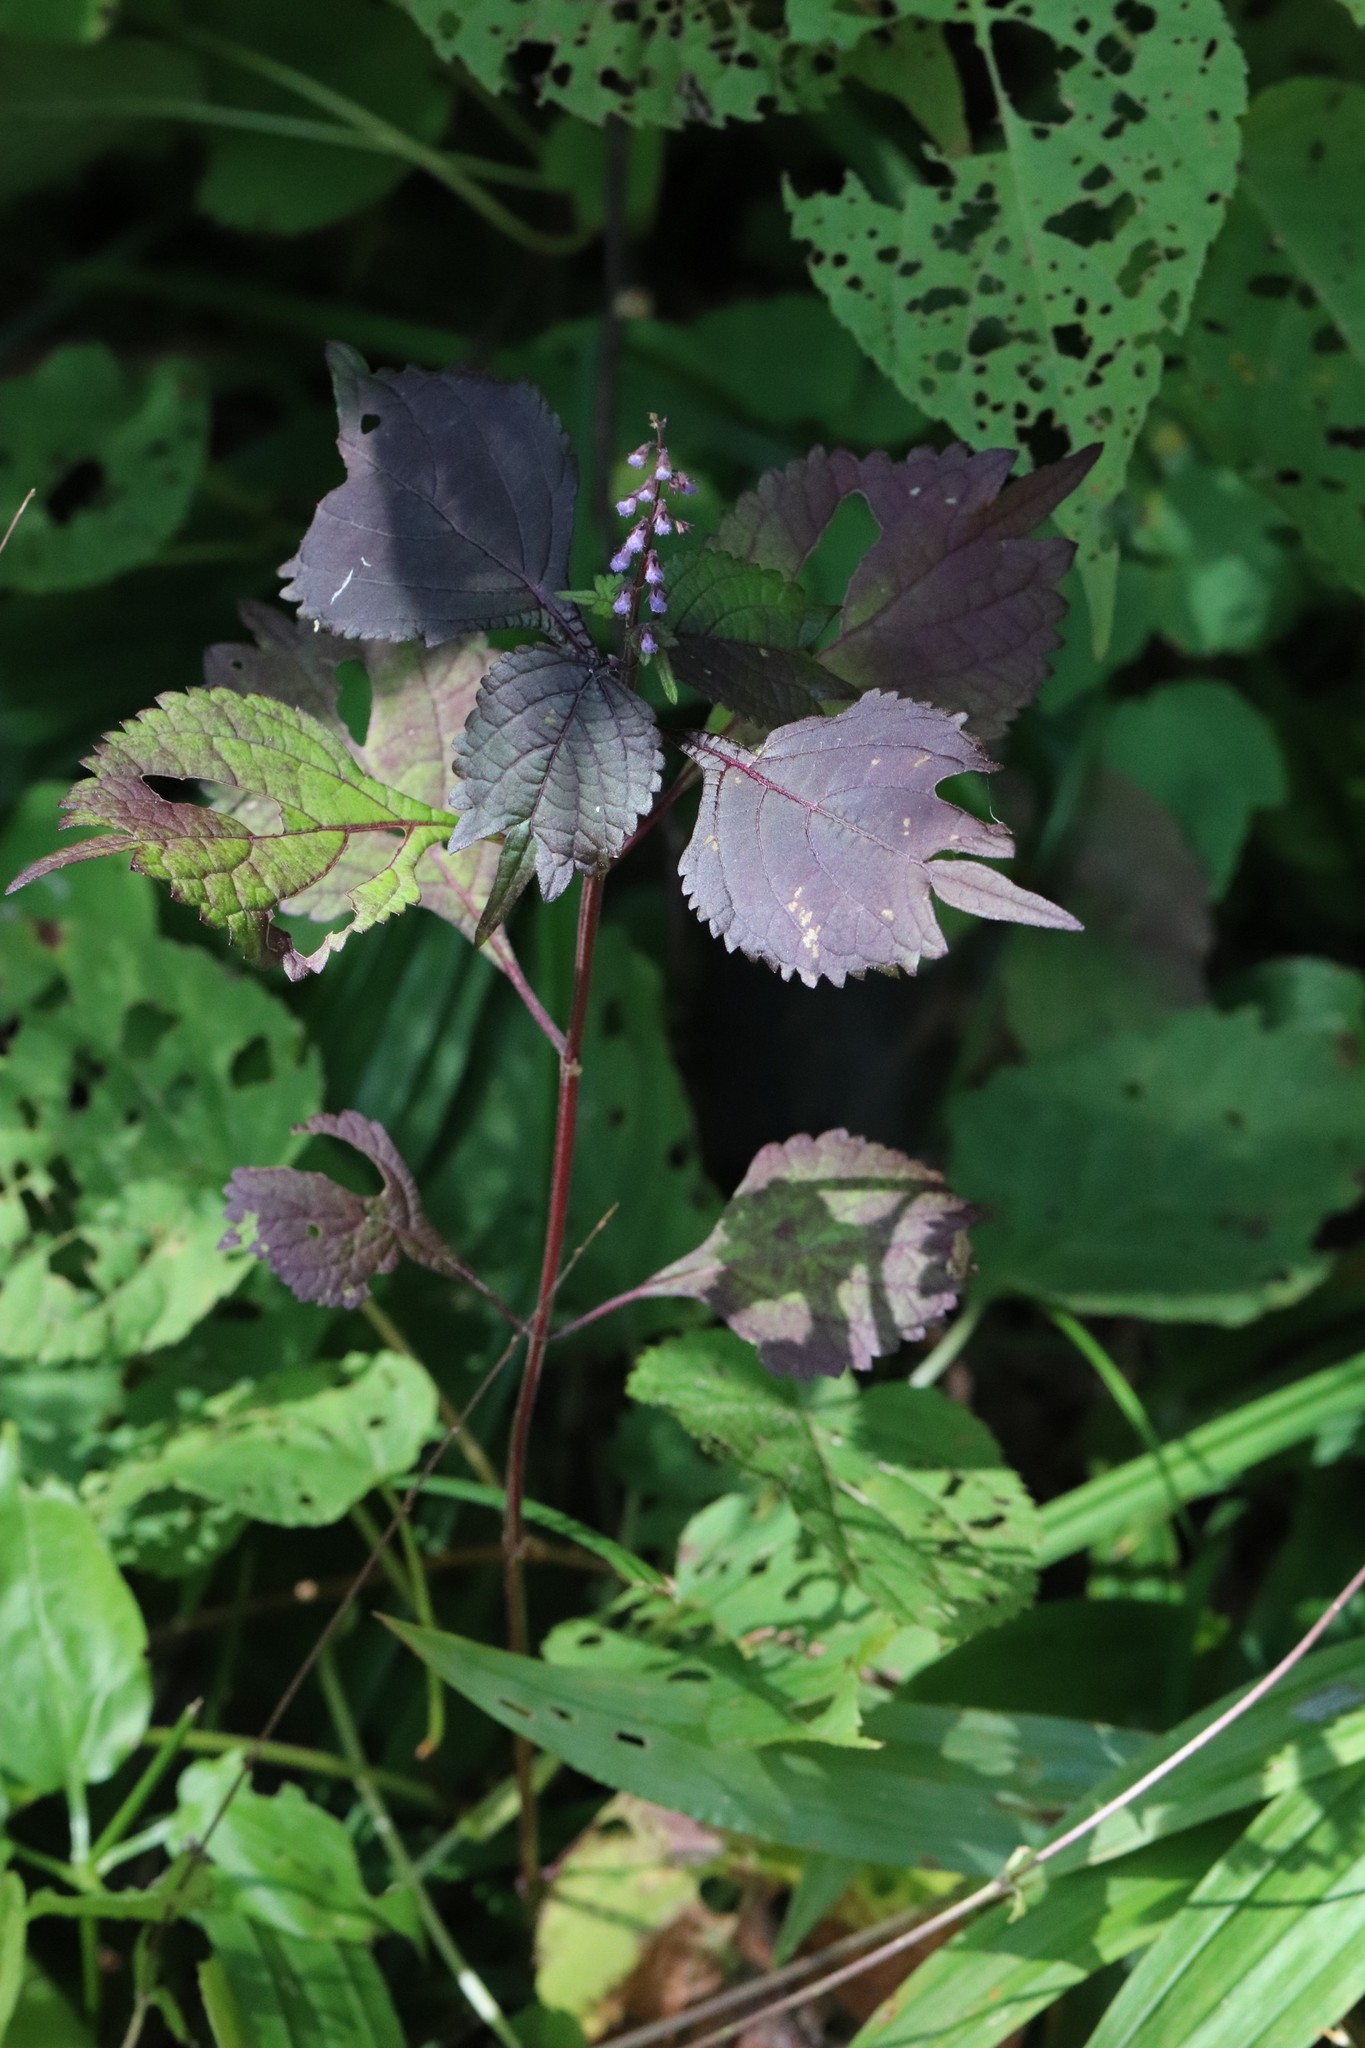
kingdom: Plantae
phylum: Tracheophyta
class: Magnoliopsida
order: Lamiales
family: Lamiaceae
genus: Isodon
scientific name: Isodon excisus
